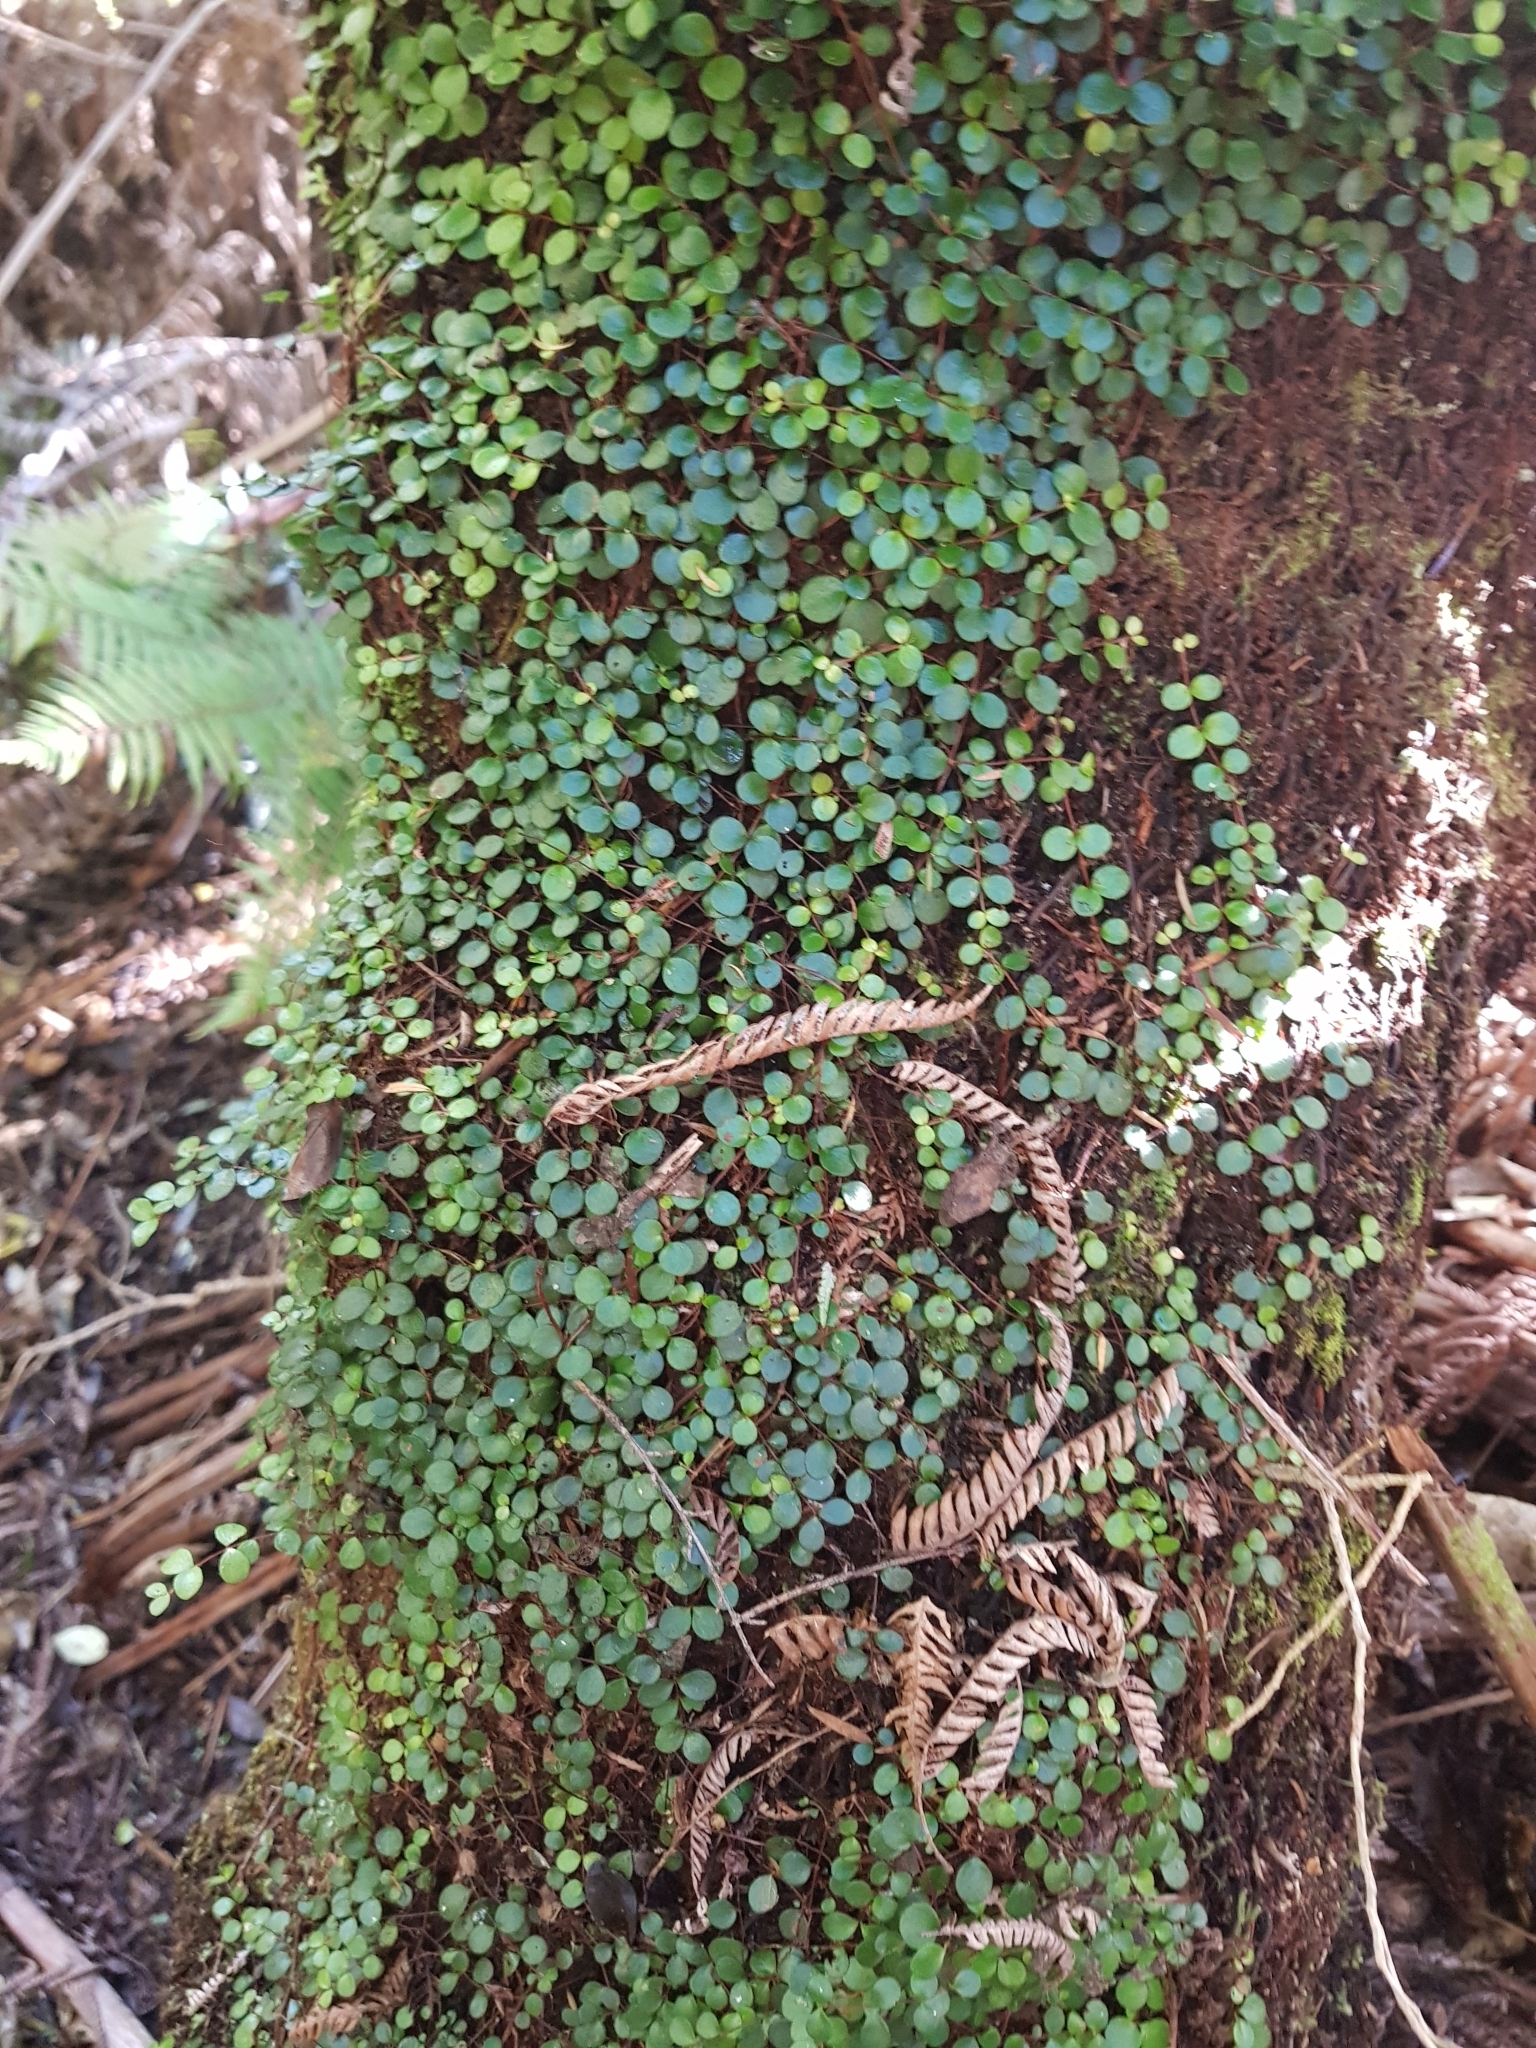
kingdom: Plantae
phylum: Tracheophyta
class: Magnoliopsida
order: Myrtales
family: Myrtaceae
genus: Metrosideros
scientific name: Metrosideros perforata
